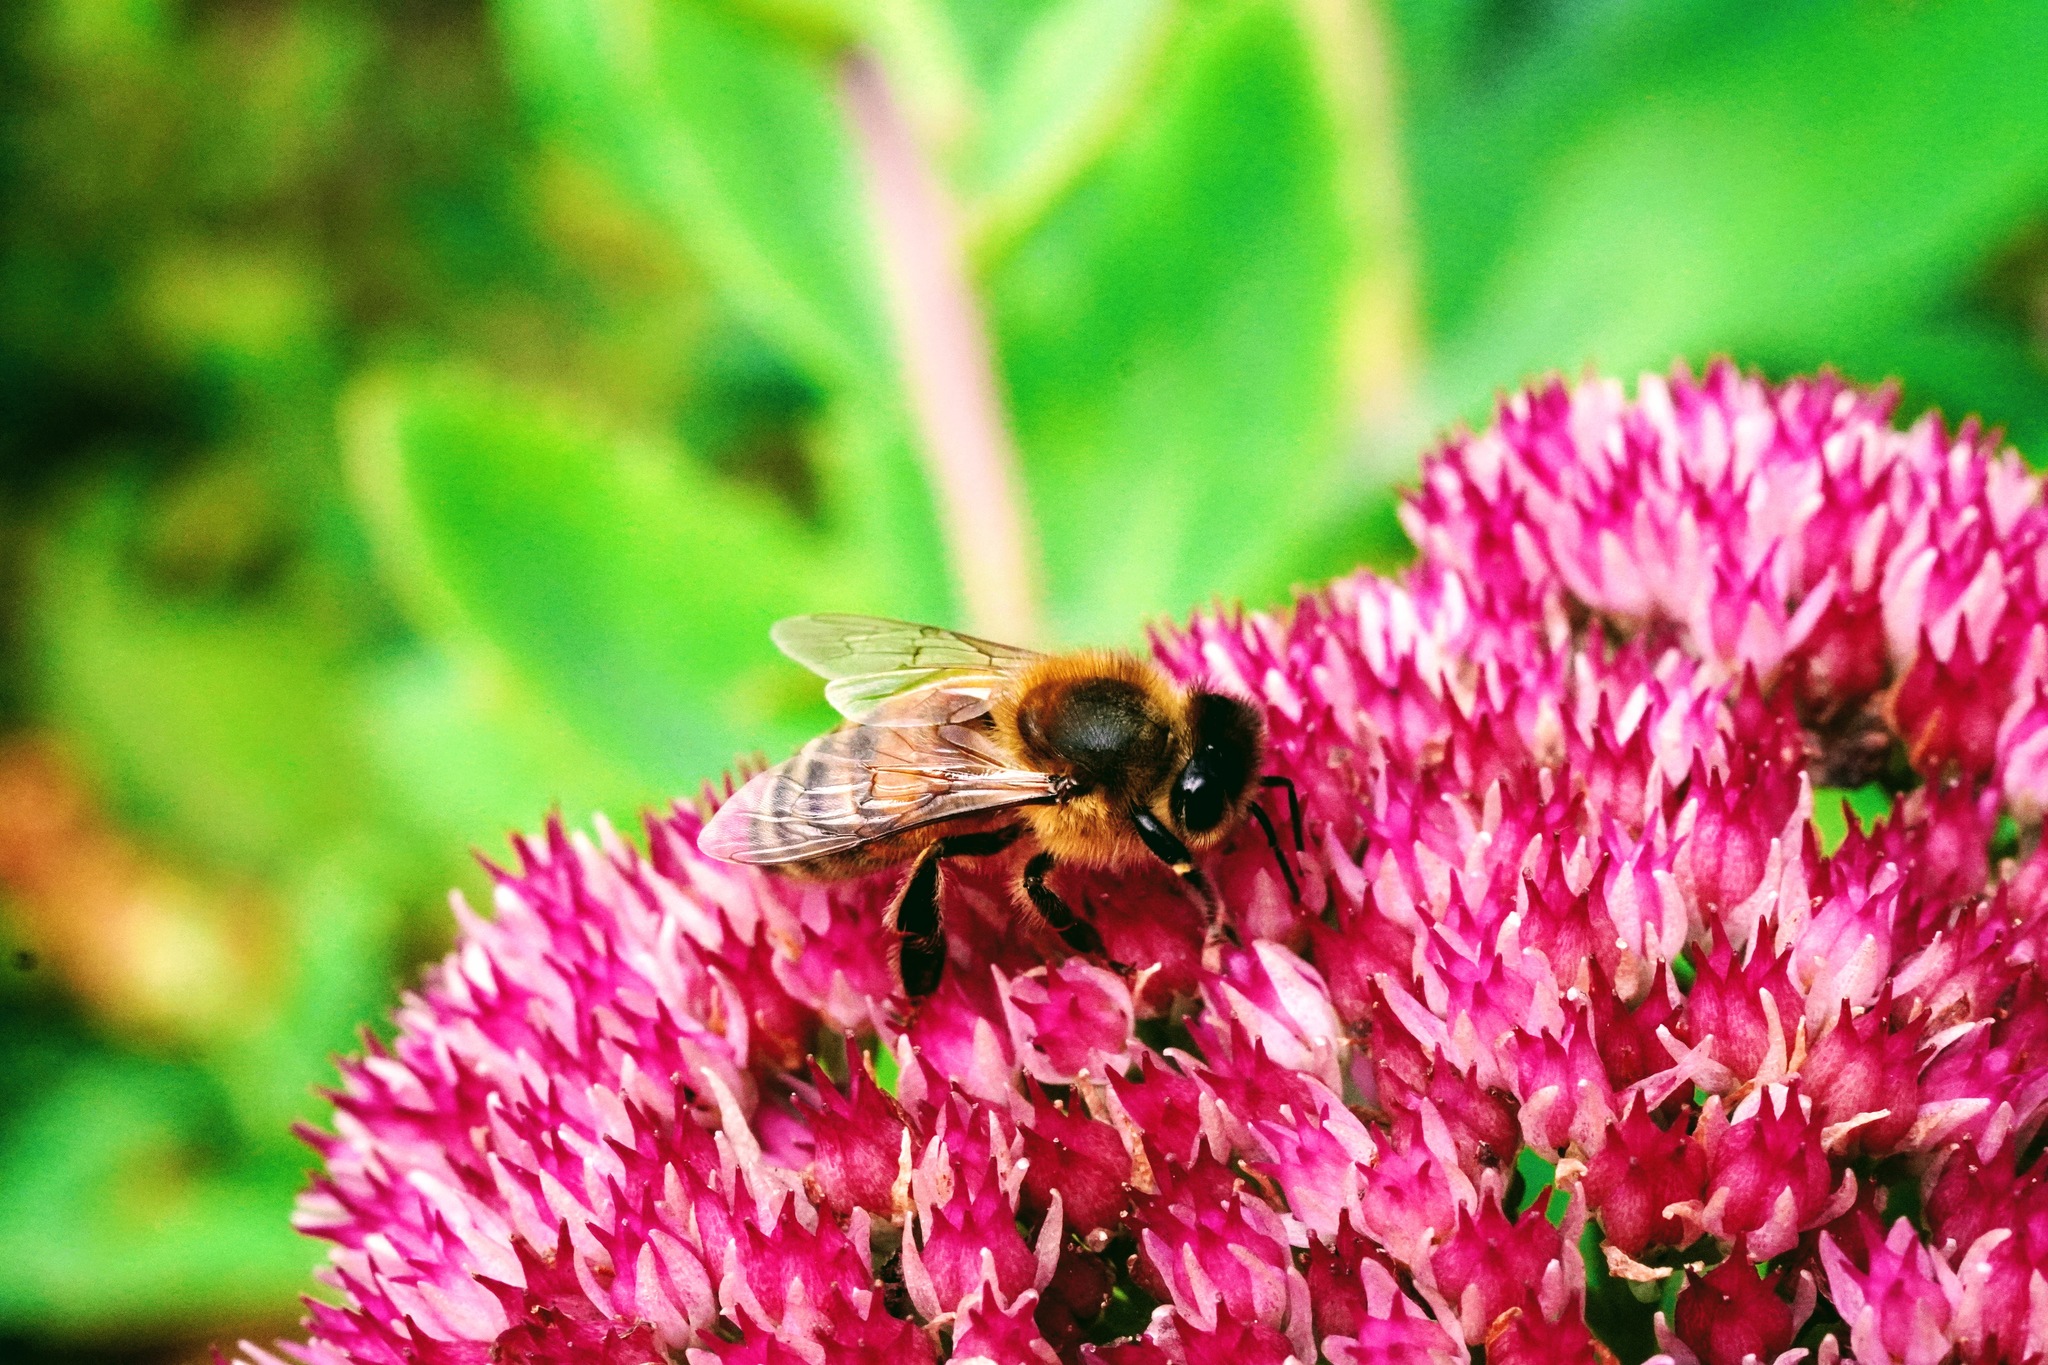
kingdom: Animalia
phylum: Arthropoda
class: Insecta
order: Hymenoptera
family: Apidae
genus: Apis
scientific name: Apis mellifera
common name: Honey bee
